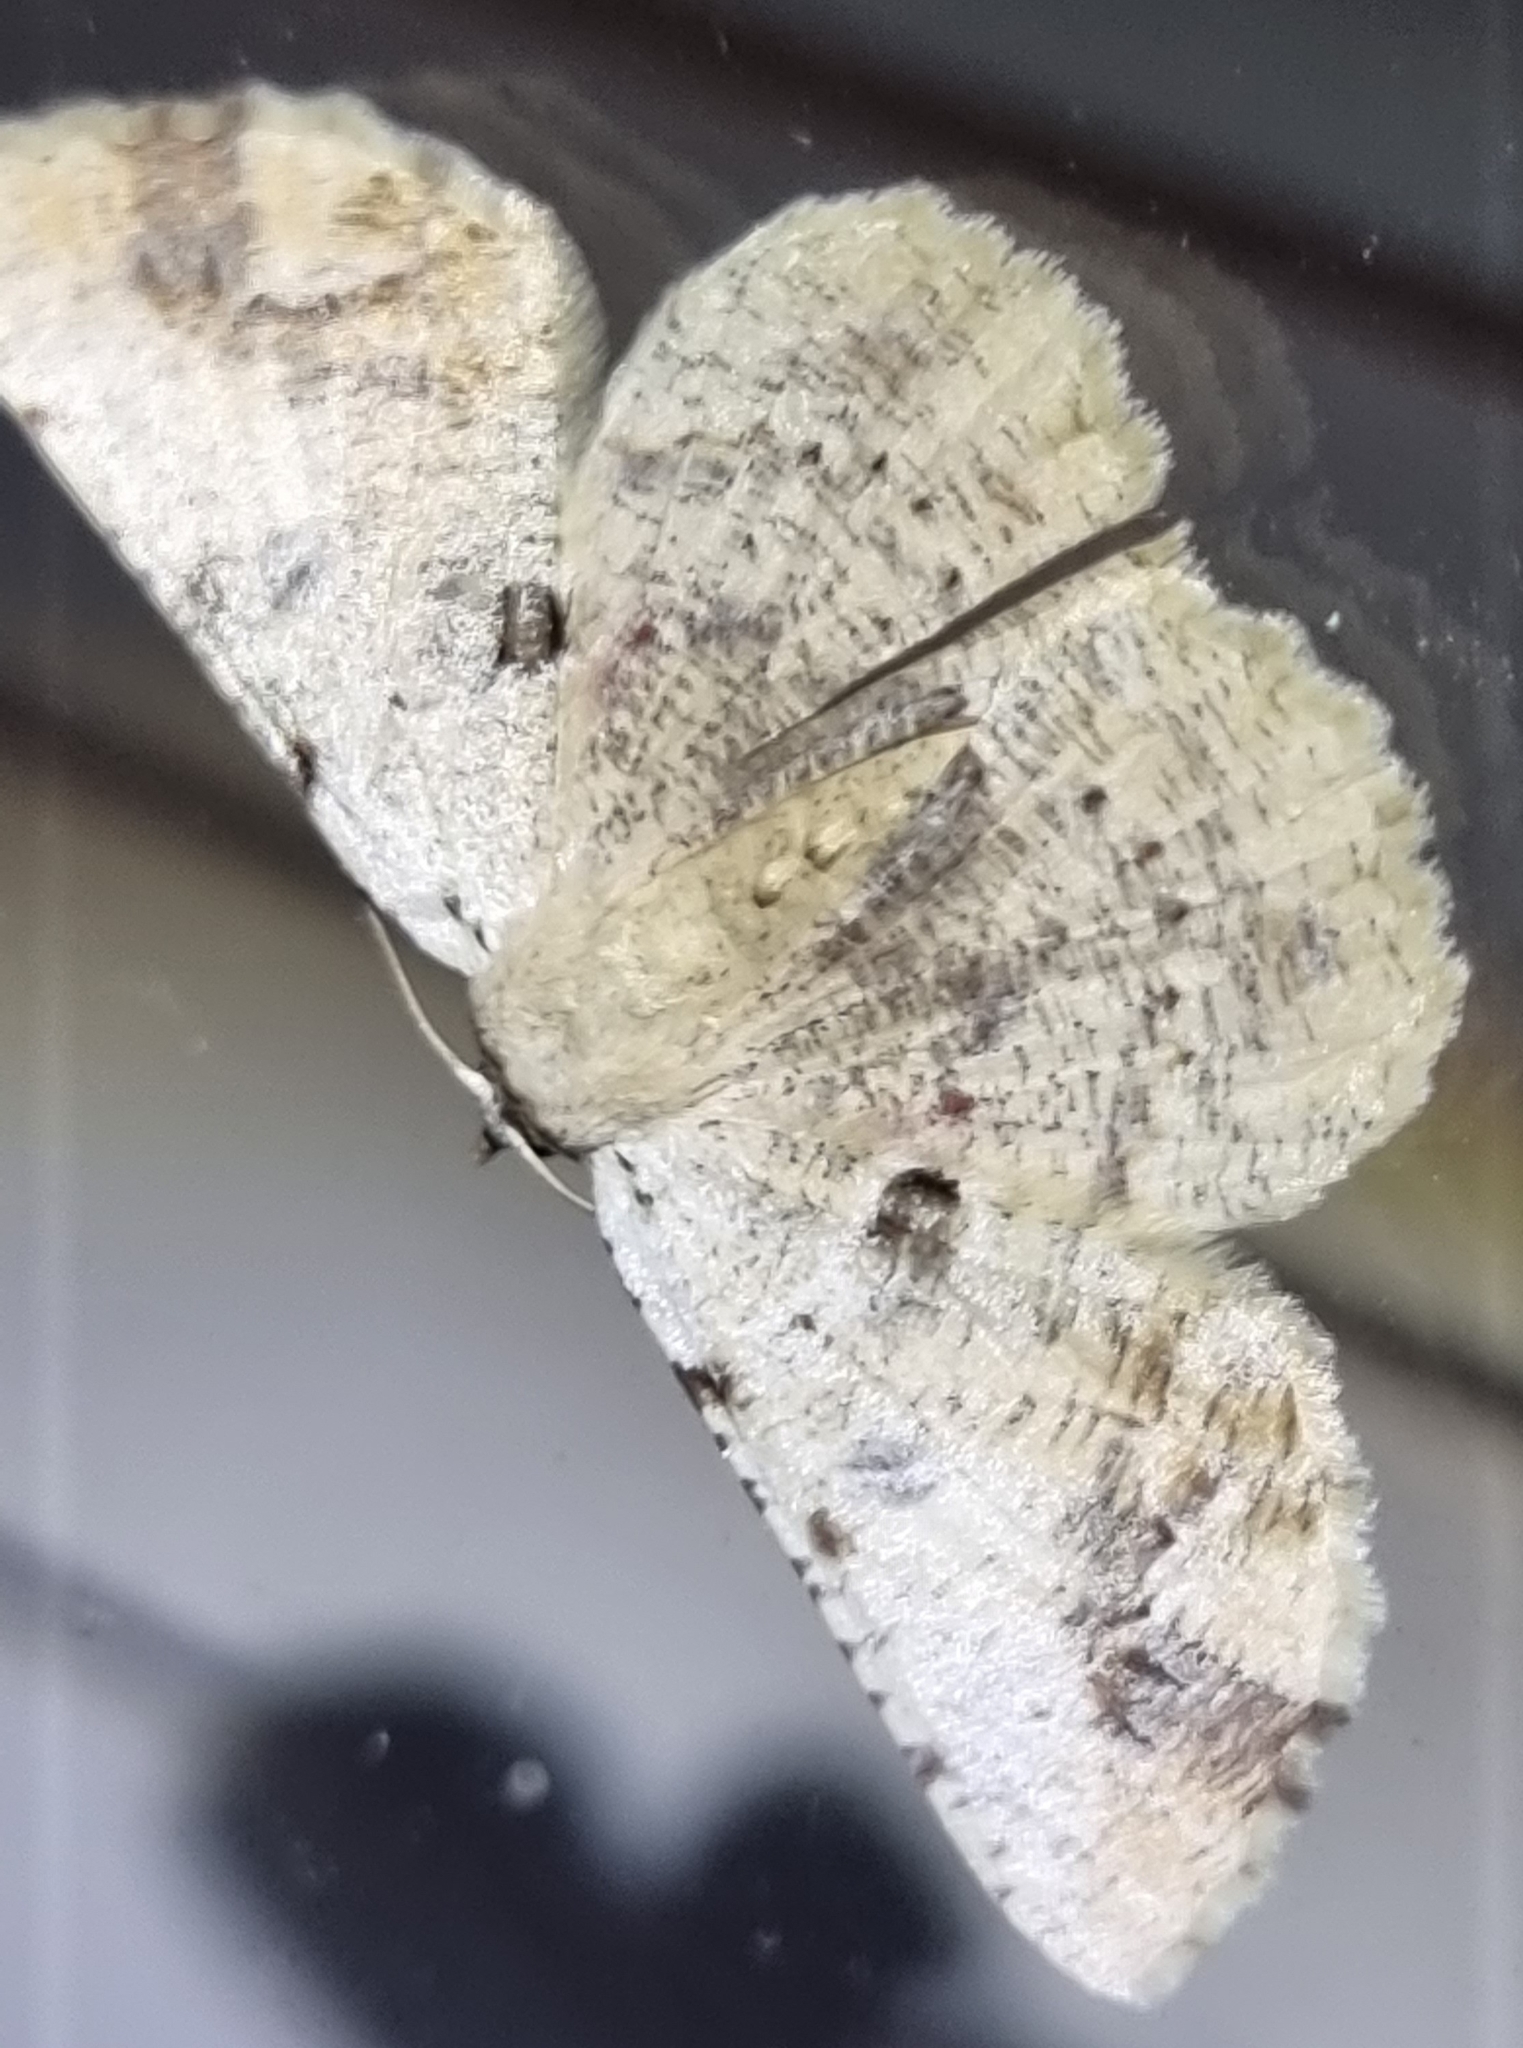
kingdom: Animalia
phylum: Arthropoda
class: Insecta
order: Lepidoptera
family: Geometridae
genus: Aeolochroma
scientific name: Aeolochroma quadrilinea
